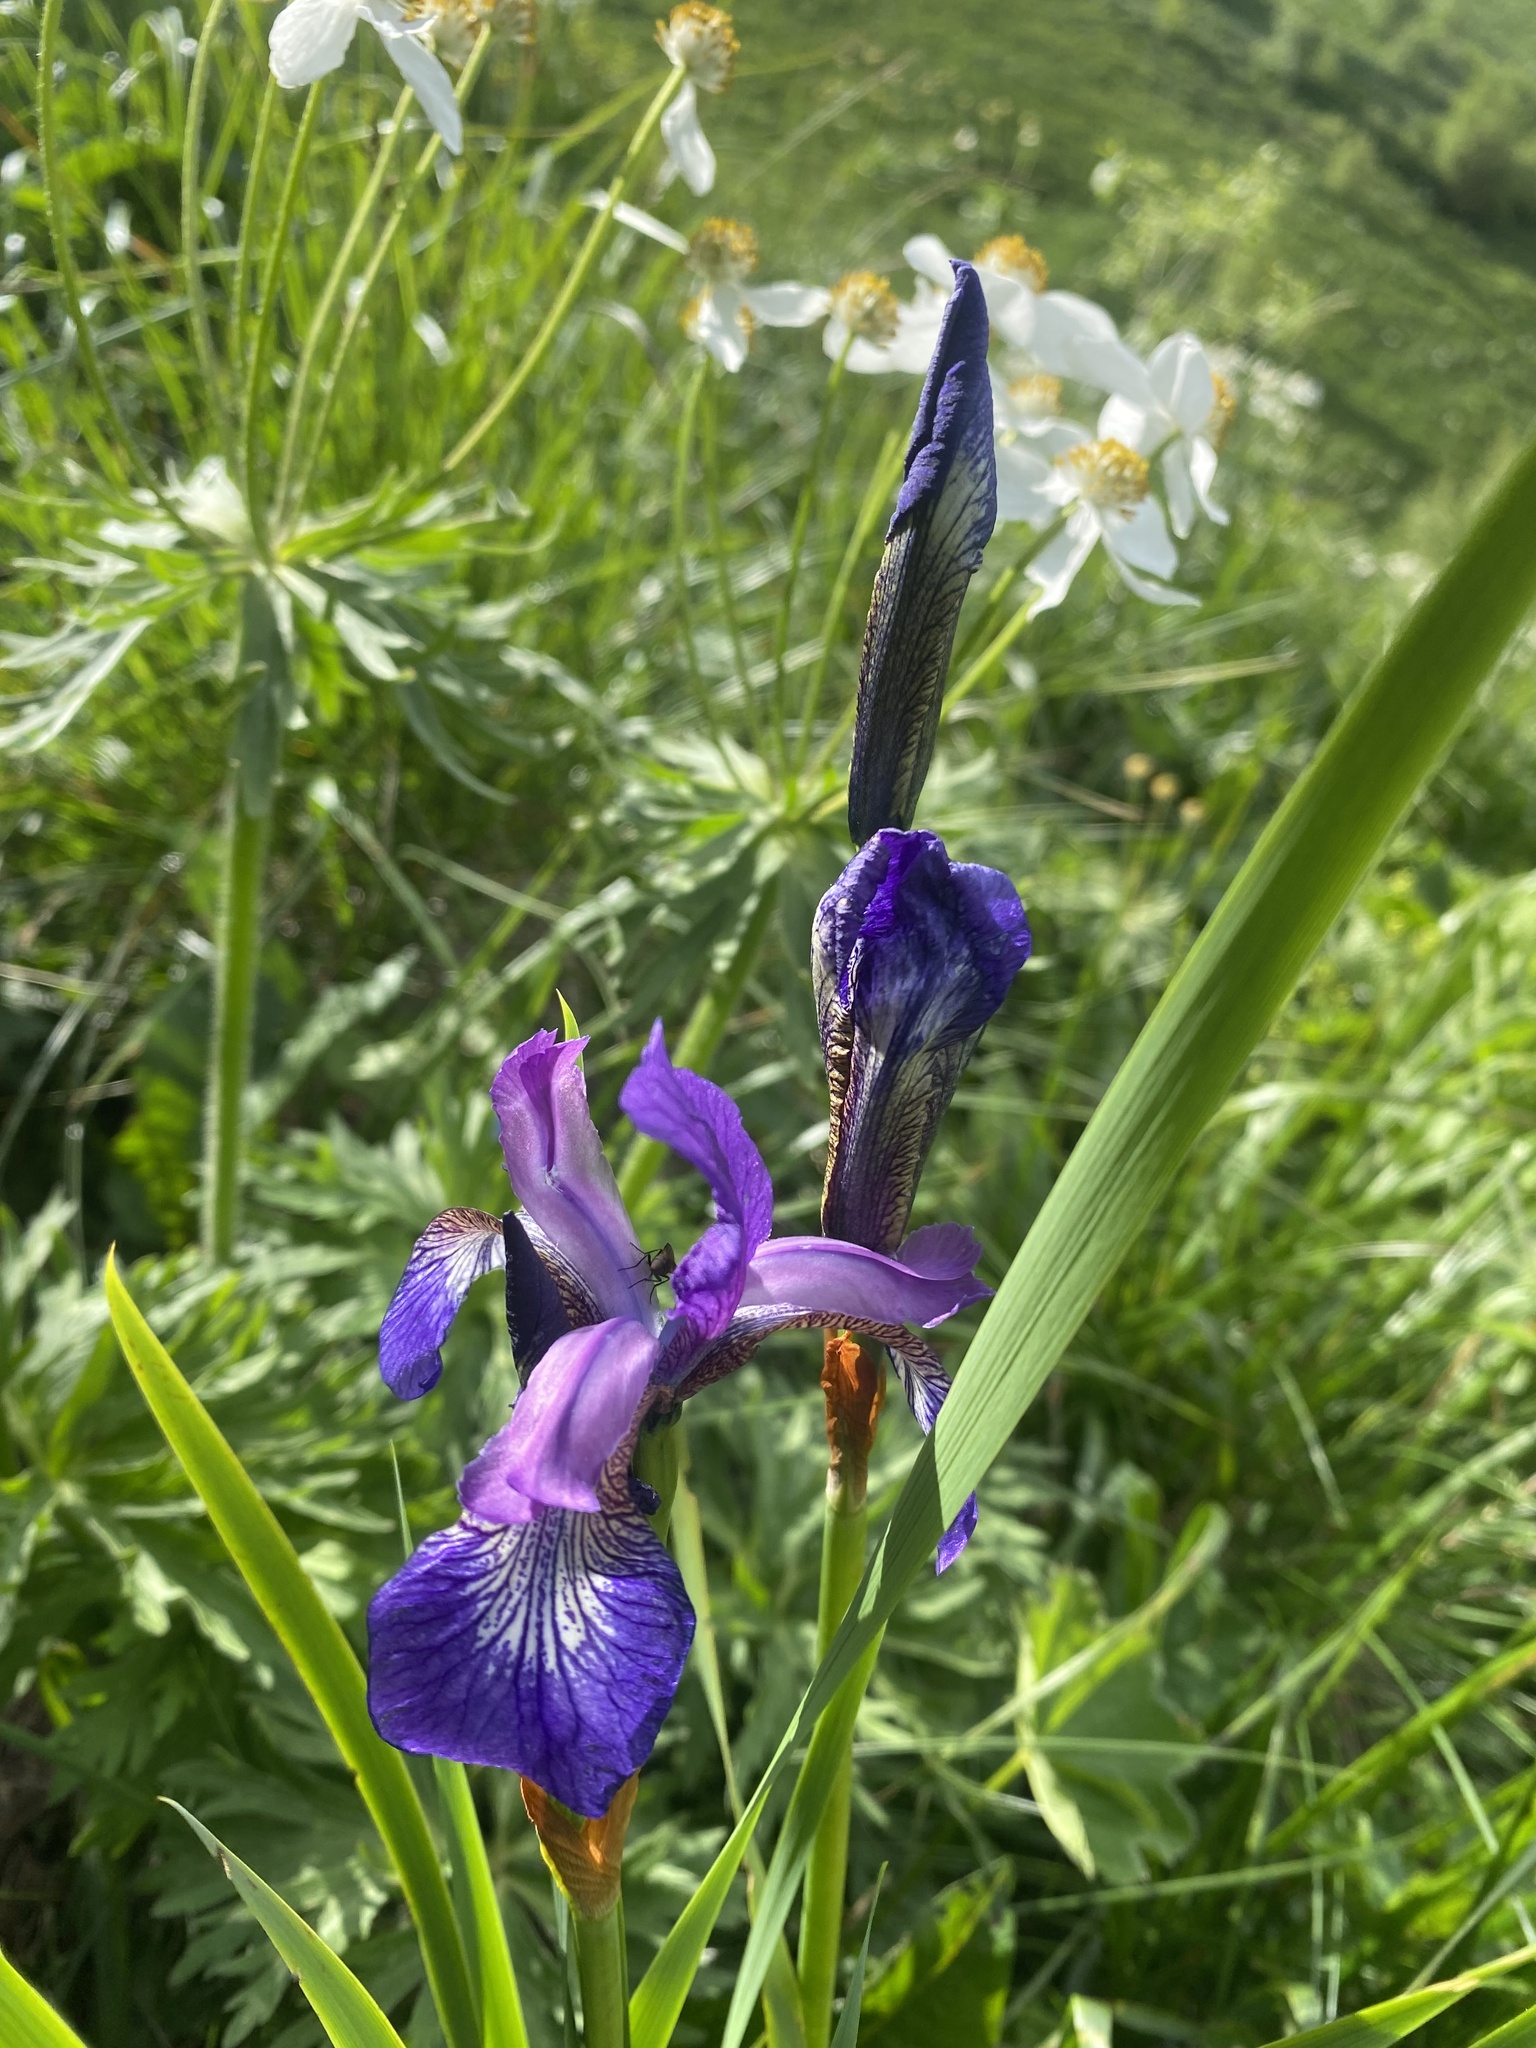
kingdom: Plantae
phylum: Tracheophyta
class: Liliopsida
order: Asparagales
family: Iridaceae
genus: Iris
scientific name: Iris sibirica
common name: Siberian iris
